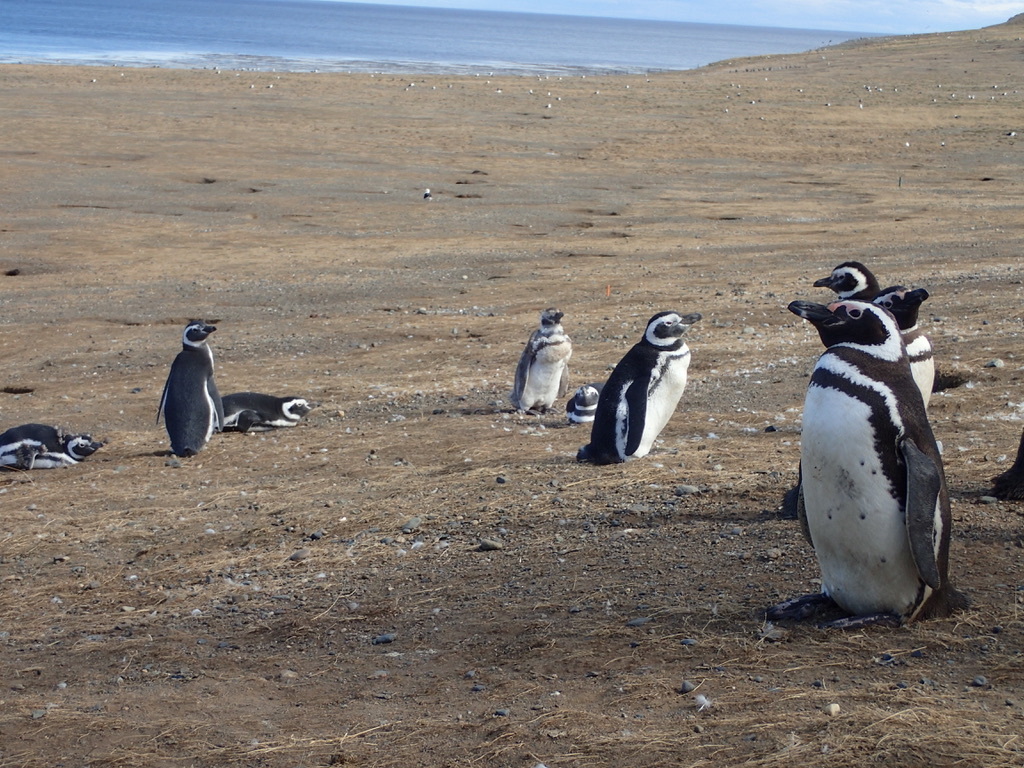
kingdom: Animalia
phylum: Chordata
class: Aves
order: Sphenisciformes
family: Spheniscidae
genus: Spheniscus
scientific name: Spheniscus magellanicus
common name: Magellanic penguin
